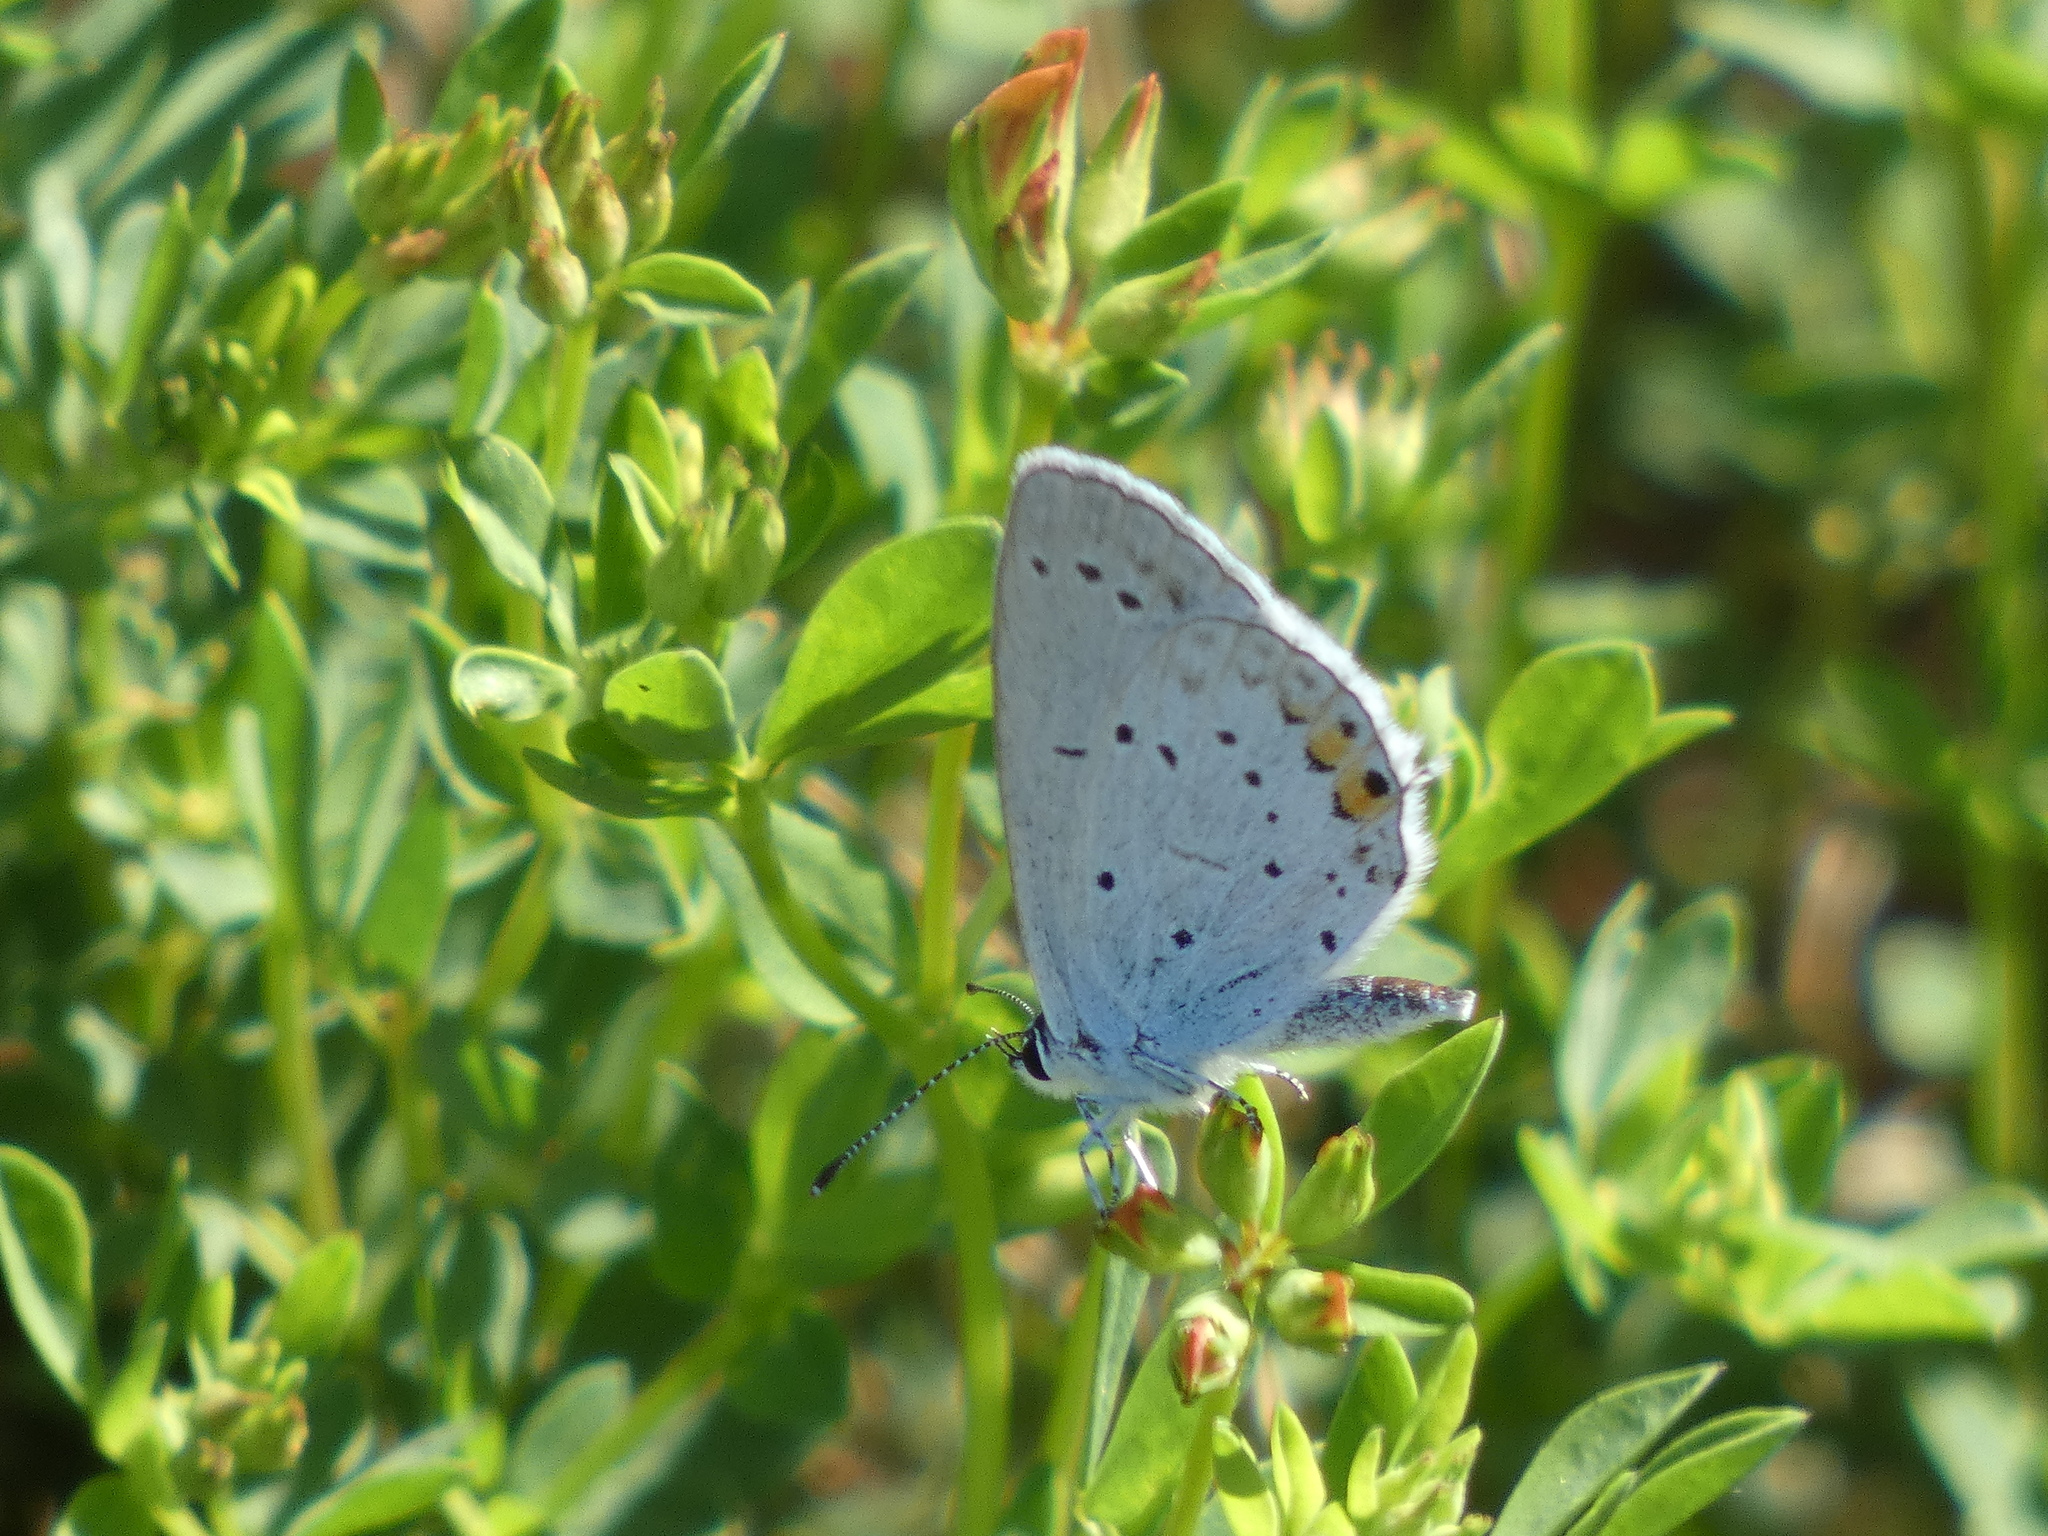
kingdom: Animalia
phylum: Arthropoda
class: Insecta
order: Lepidoptera
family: Lycaenidae
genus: Elkalyce
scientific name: Elkalyce argiades
